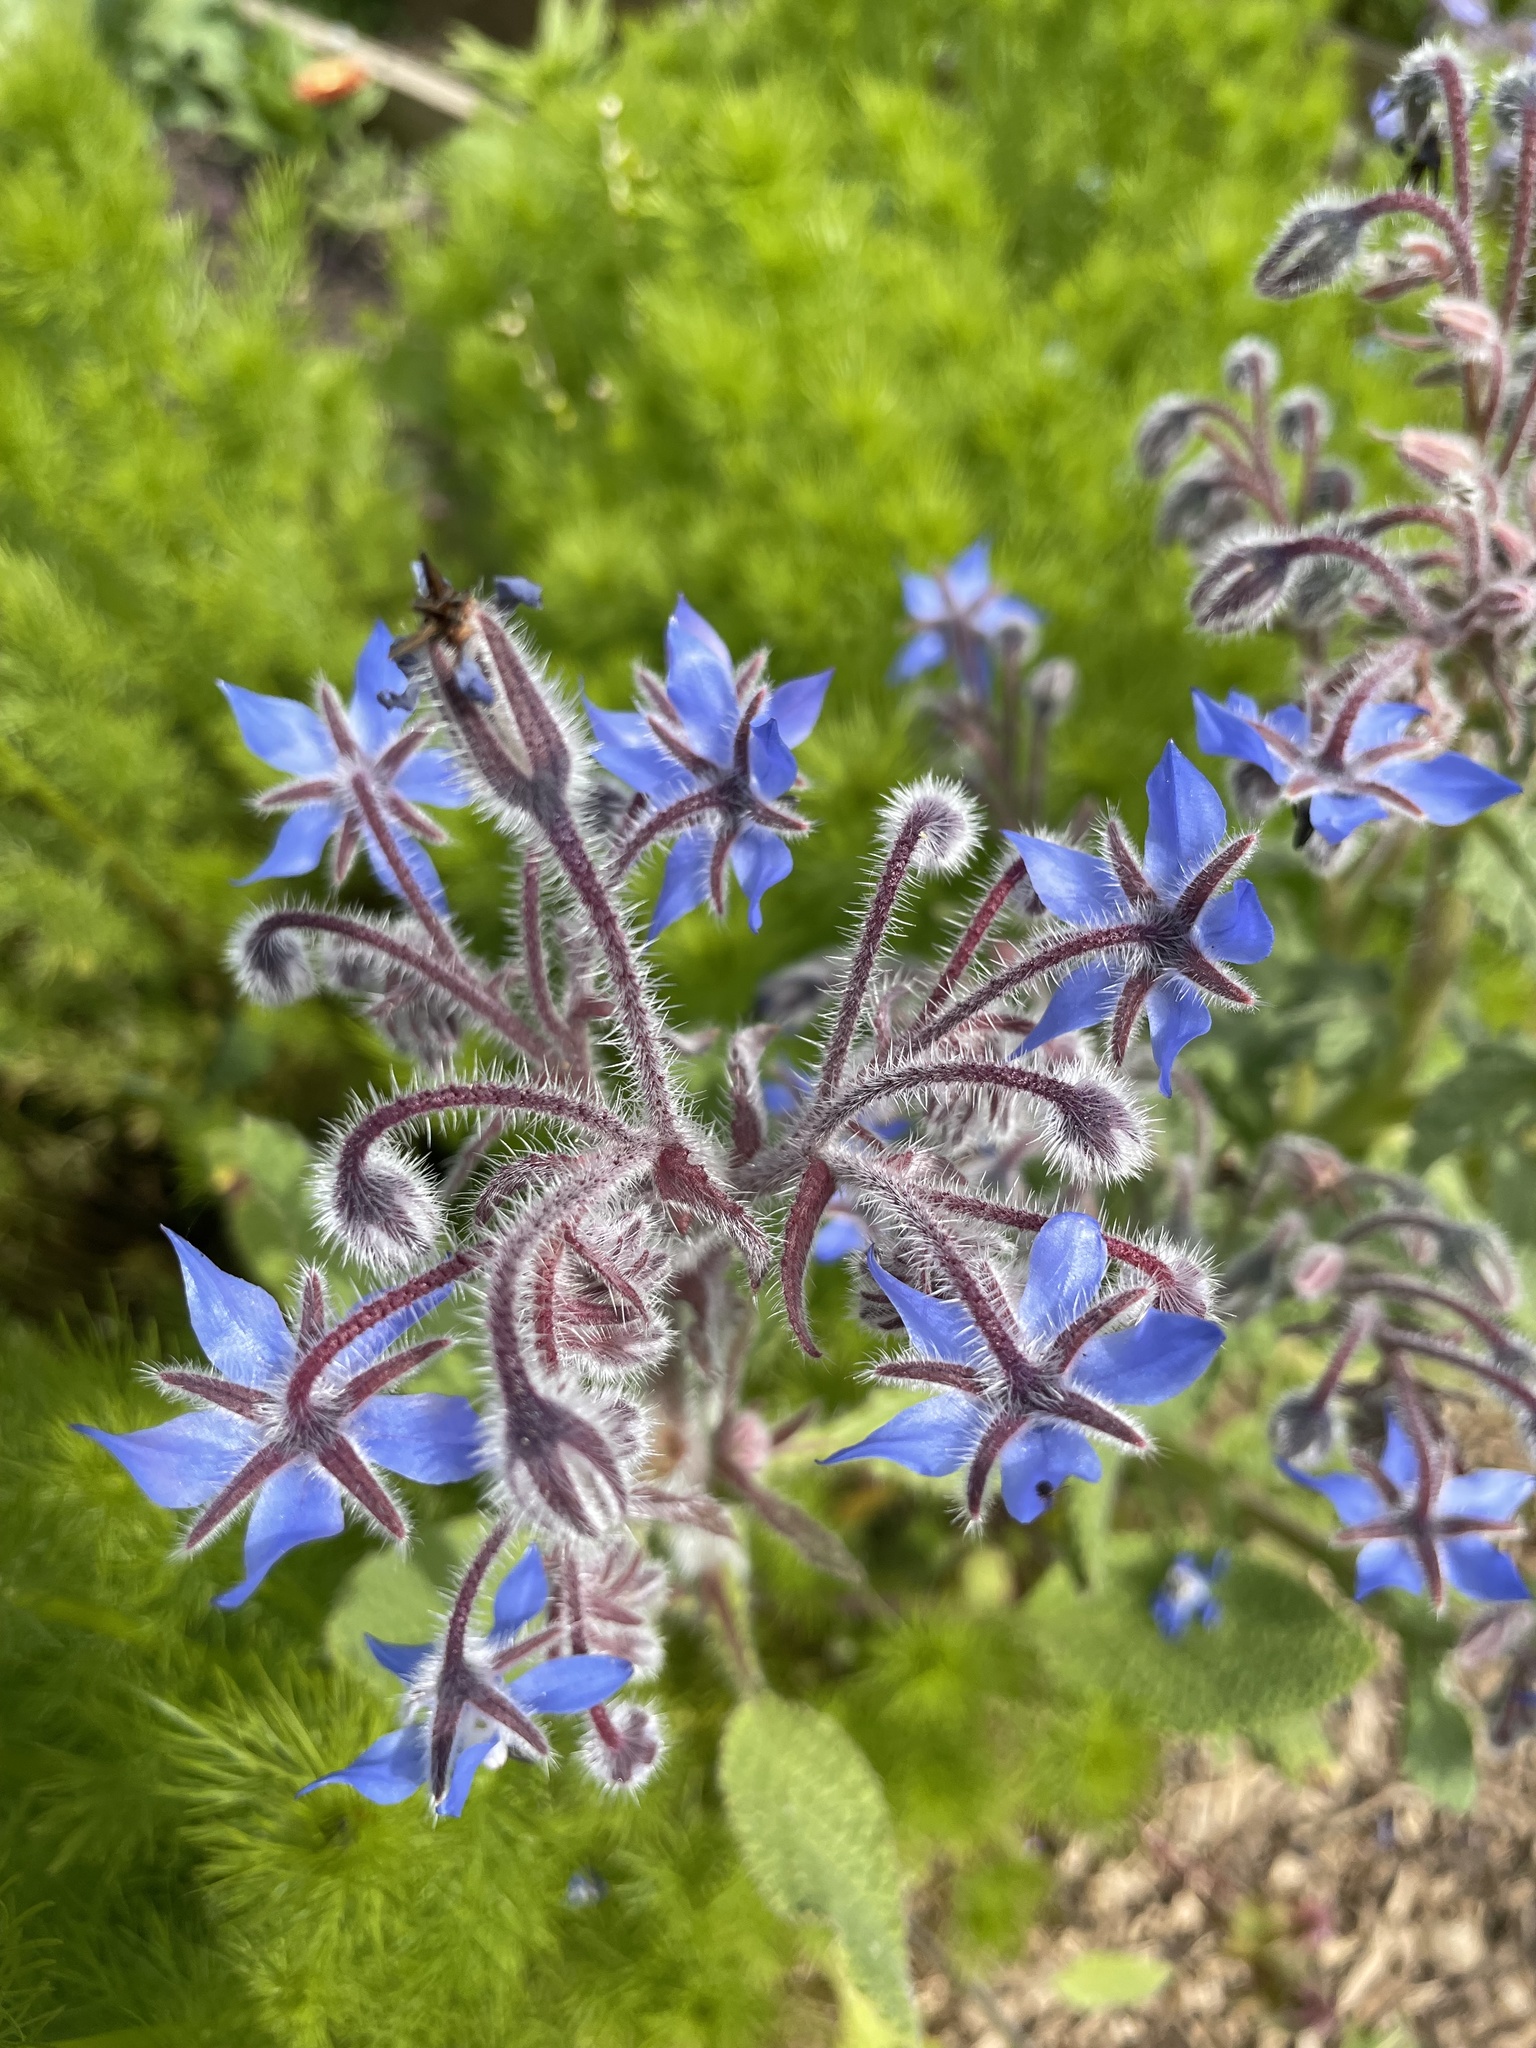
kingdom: Plantae
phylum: Tracheophyta
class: Magnoliopsida
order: Boraginales
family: Boraginaceae
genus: Borago
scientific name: Borago officinalis
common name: Borage
